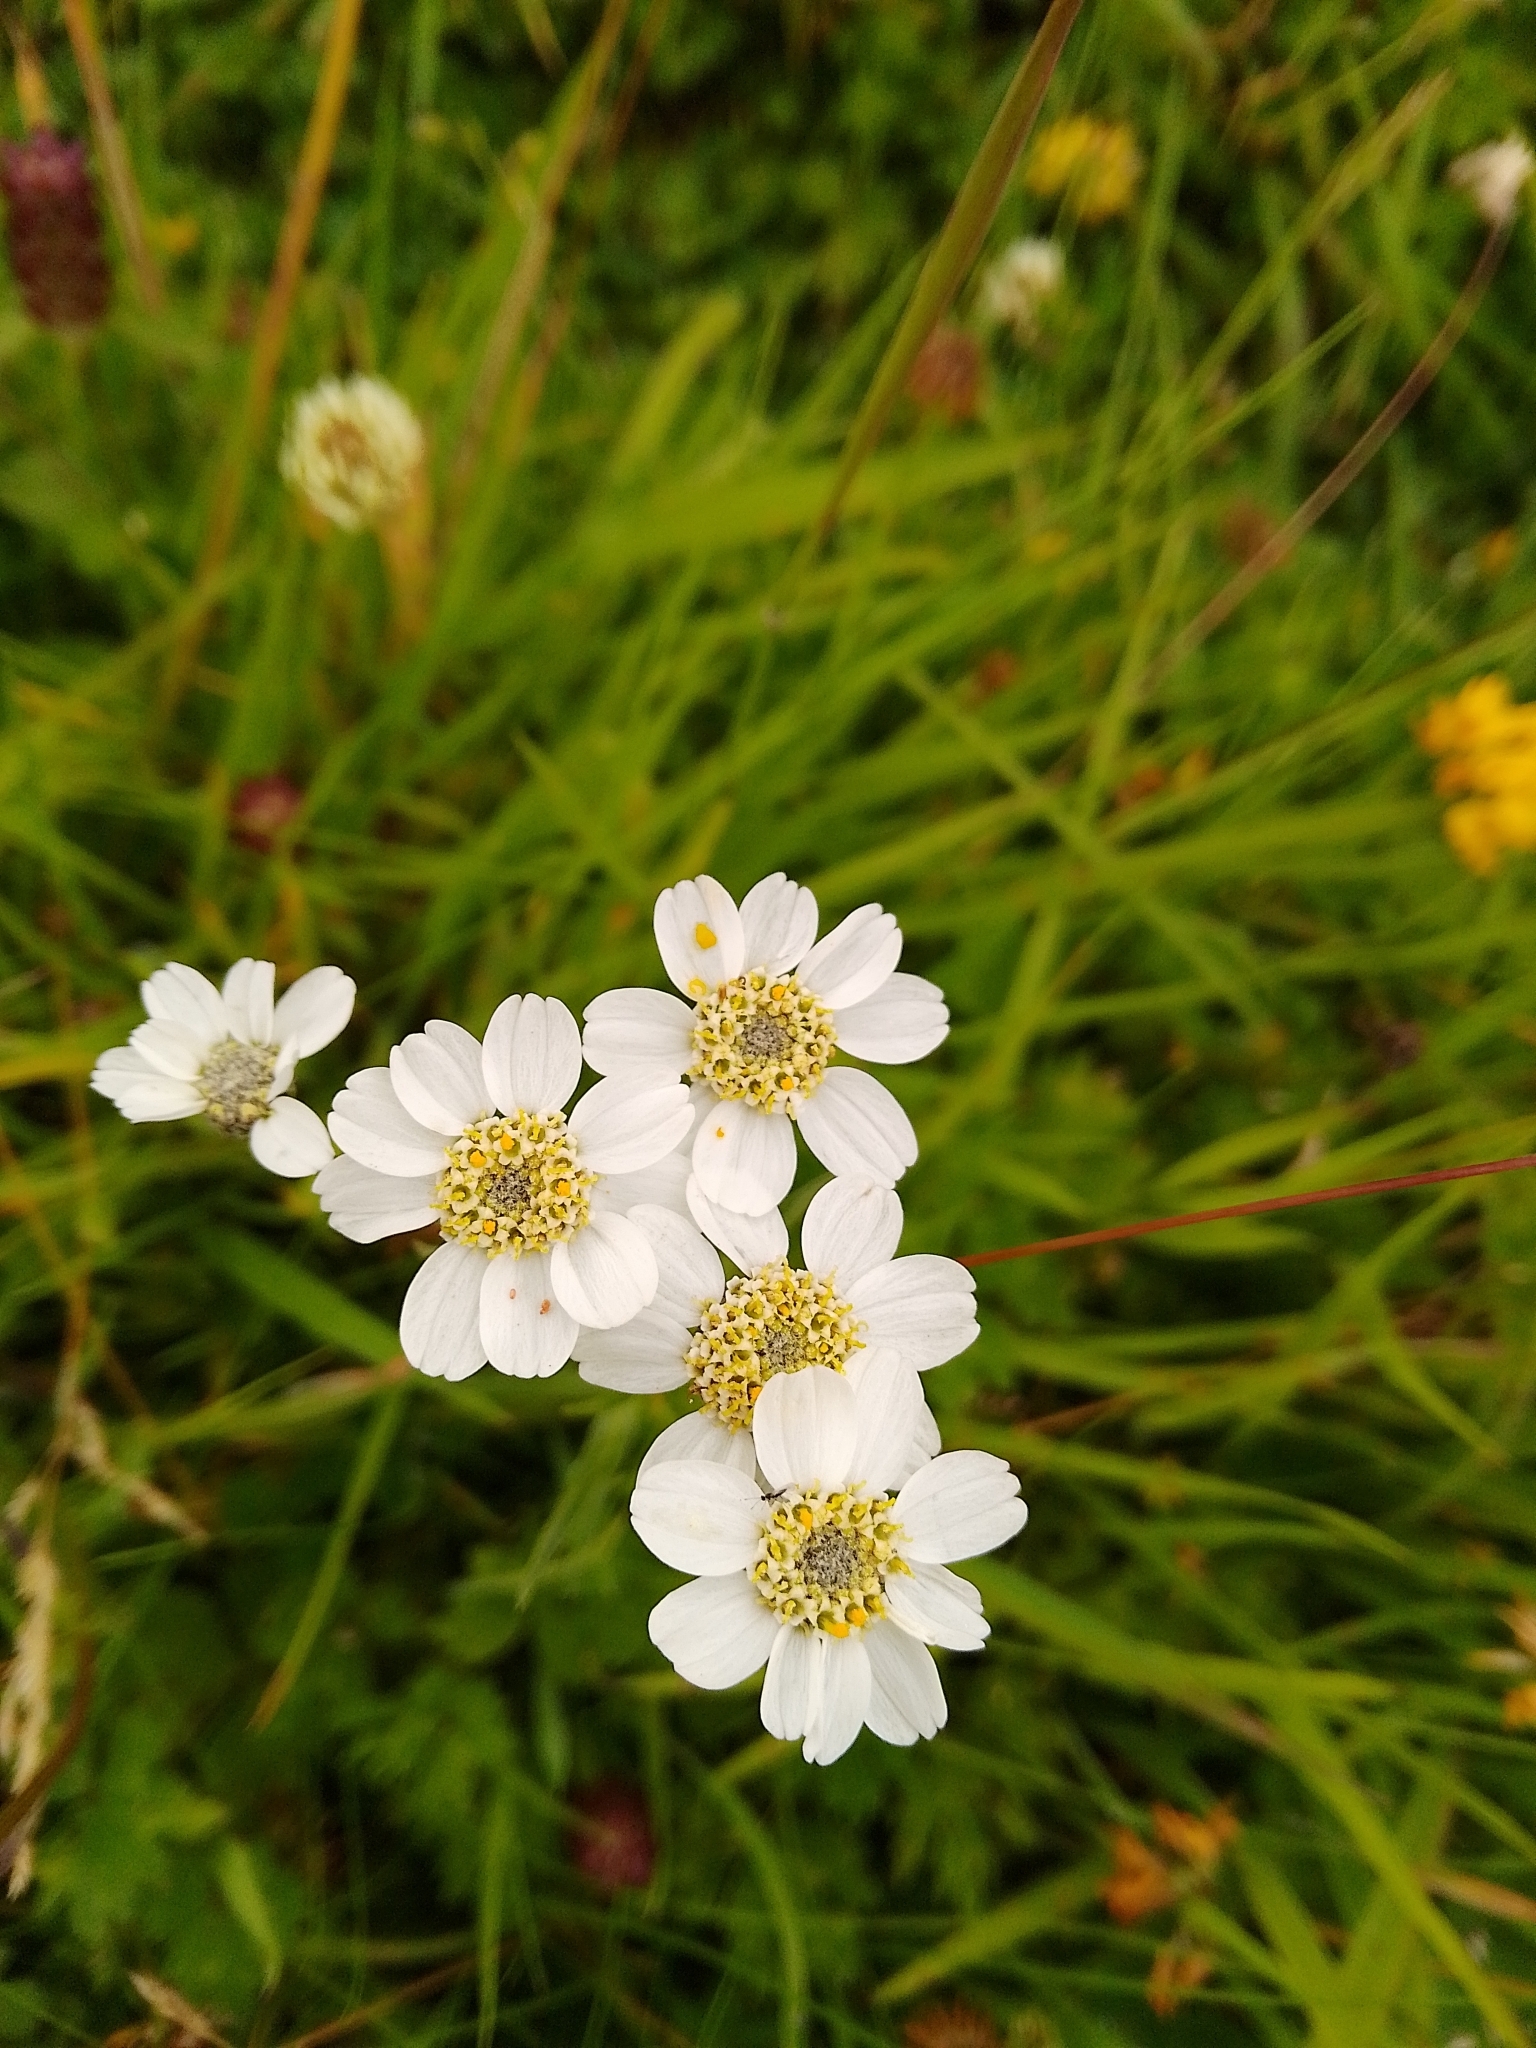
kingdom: Plantae
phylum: Tracheophyta
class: Magnoliopsida
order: Asterales
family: Asteraceae
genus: Achillea
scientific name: Achillea ptarmica
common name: Sneezeweed
